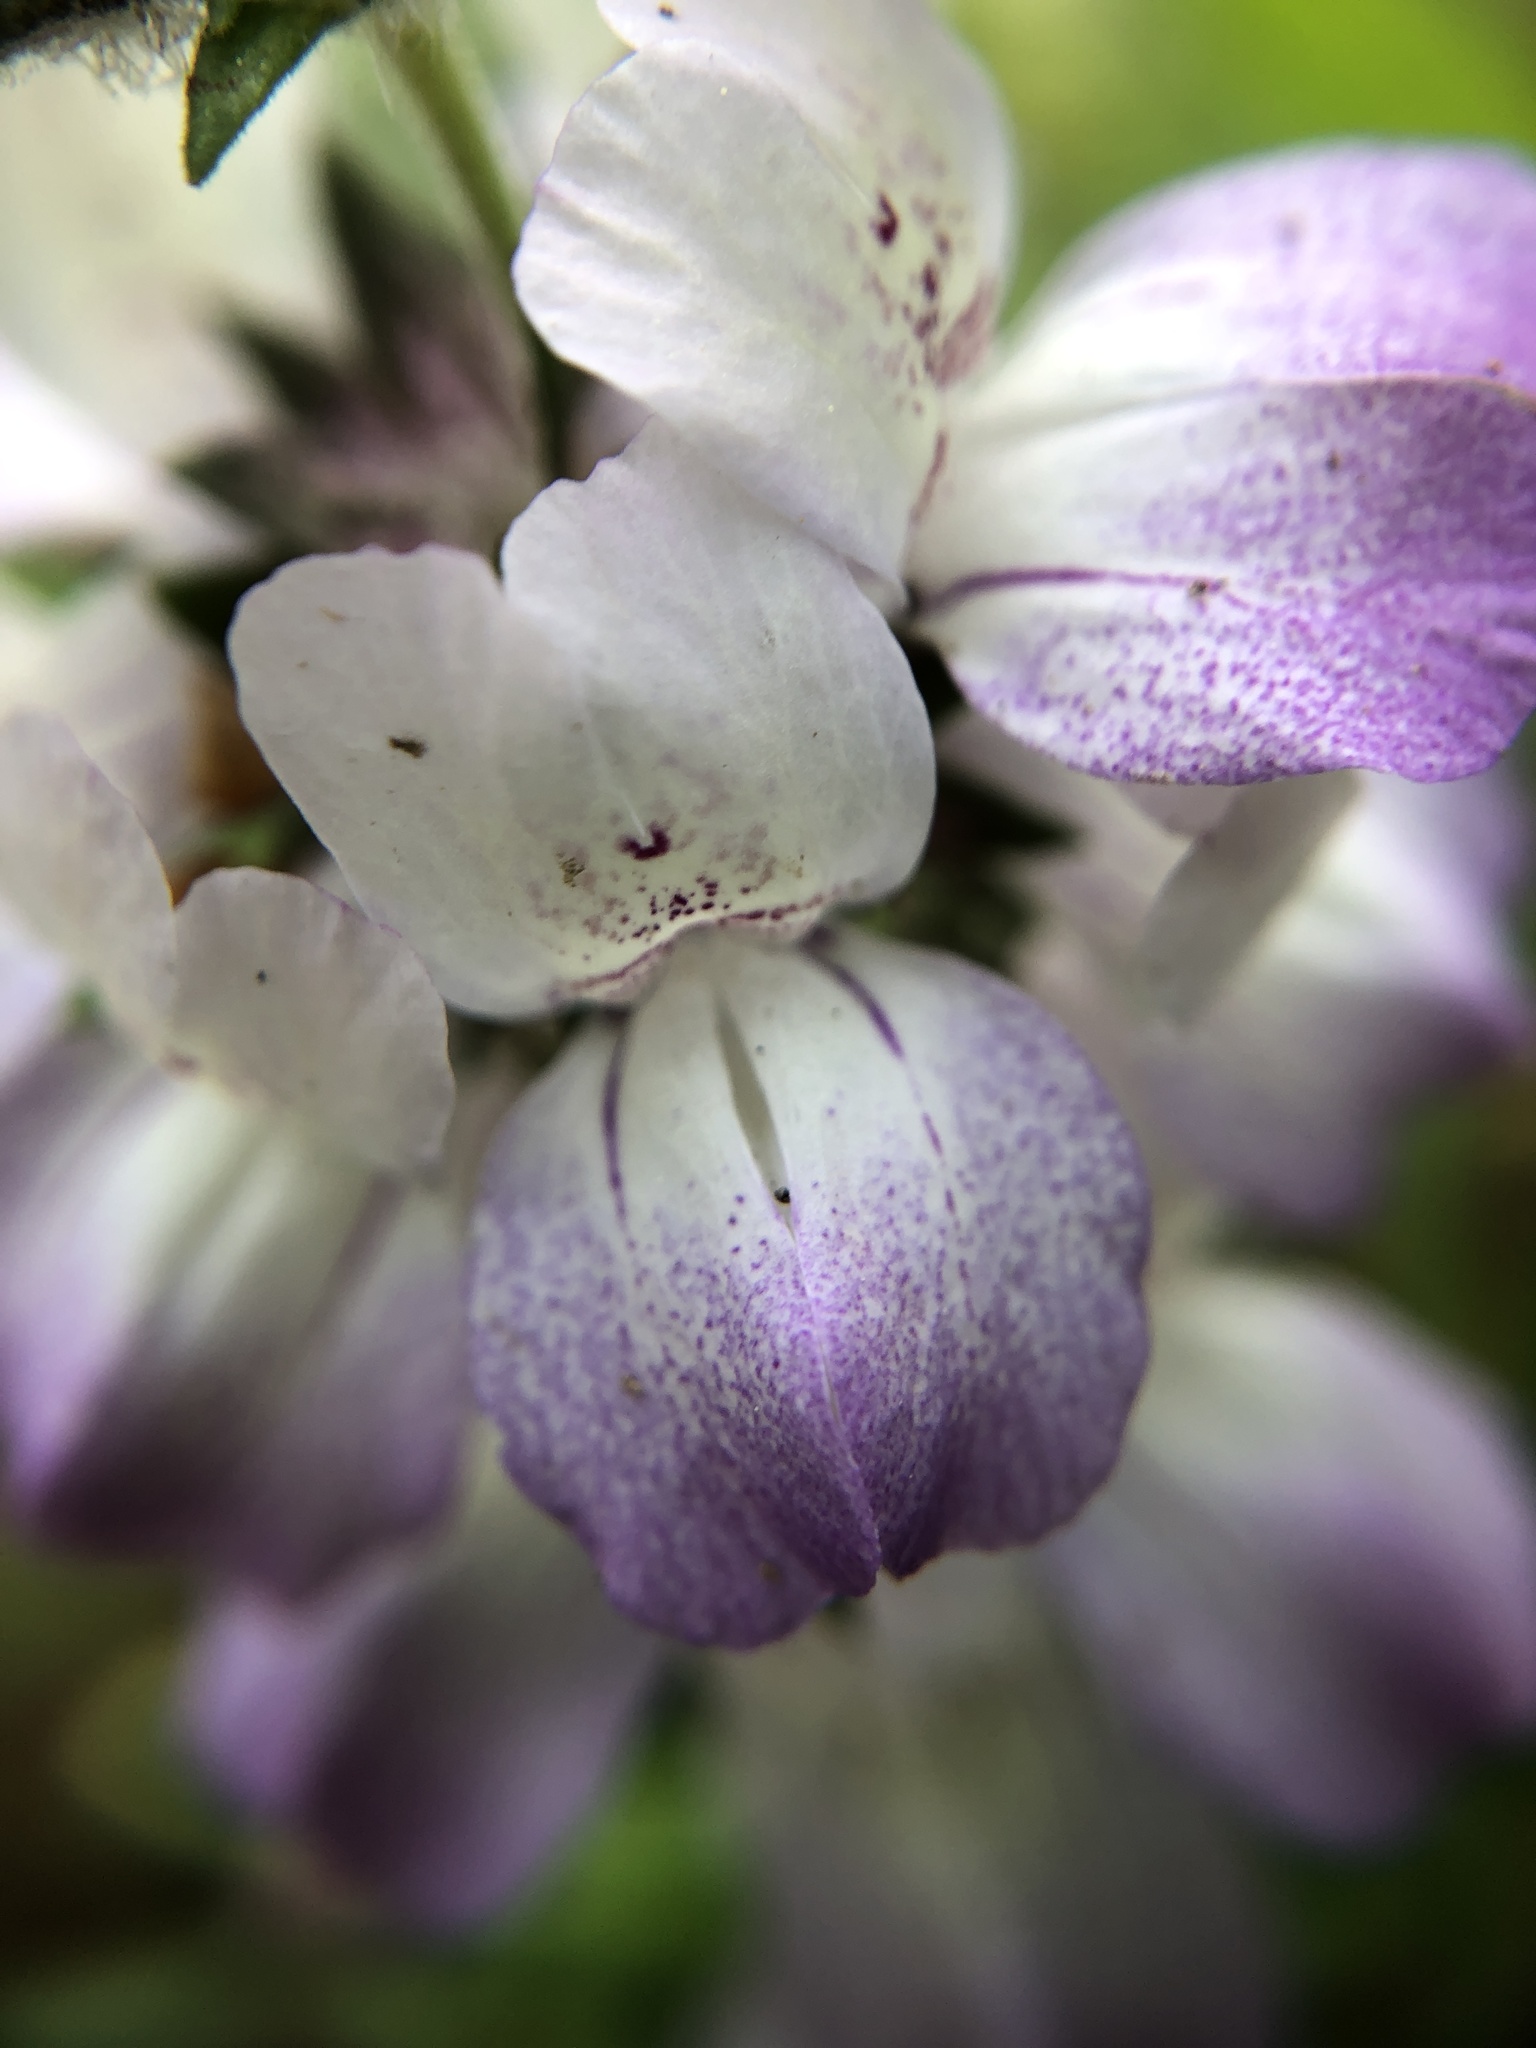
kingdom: Plantae
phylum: Tracheophyta
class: Magnoliopsida
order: Lamiales
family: Plantaginaceae
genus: Collinsia
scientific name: Collinsia heterophylla
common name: Chinese-houses
